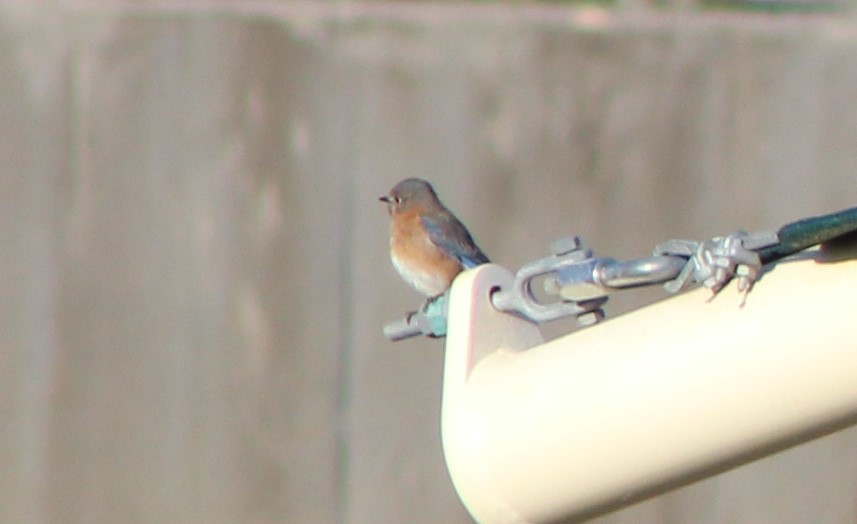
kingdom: Animalia
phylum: Chordata
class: Aves
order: Passeriformes
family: Turdidae
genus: Sialia
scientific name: Sialia sialis
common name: Eastern bluebird
